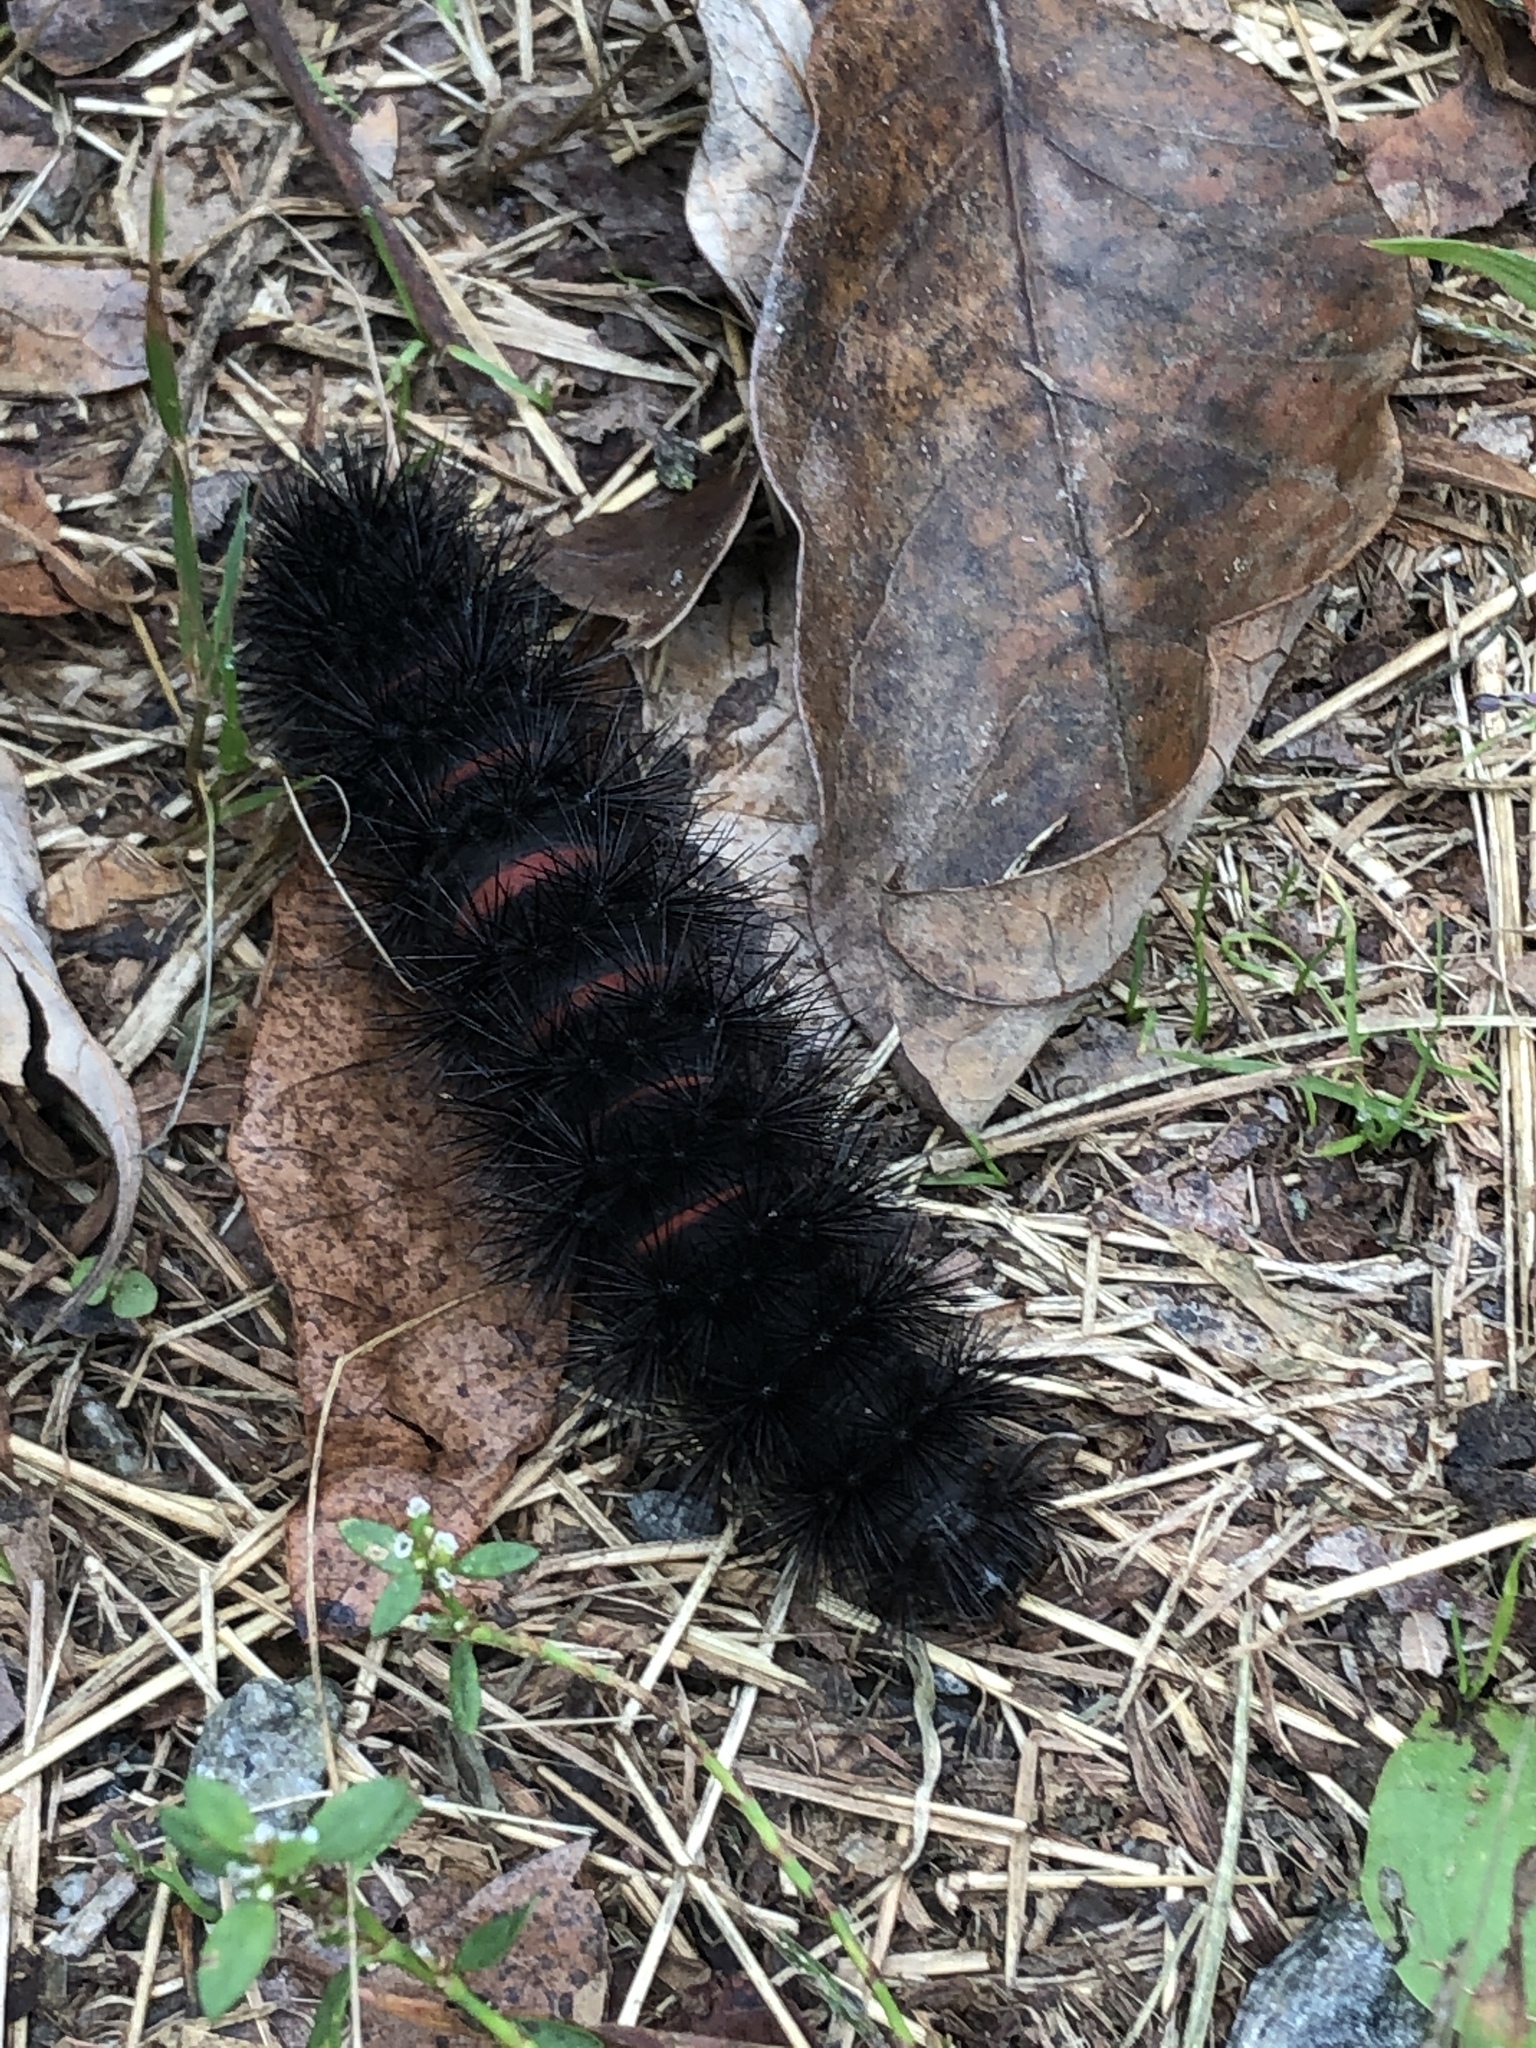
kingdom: Animalia
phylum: Arthropoda
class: Insecta
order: Lepidoptera
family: Erebidae
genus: Hypercompe
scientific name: Hypercompe scribonia
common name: Giant leopard moth
